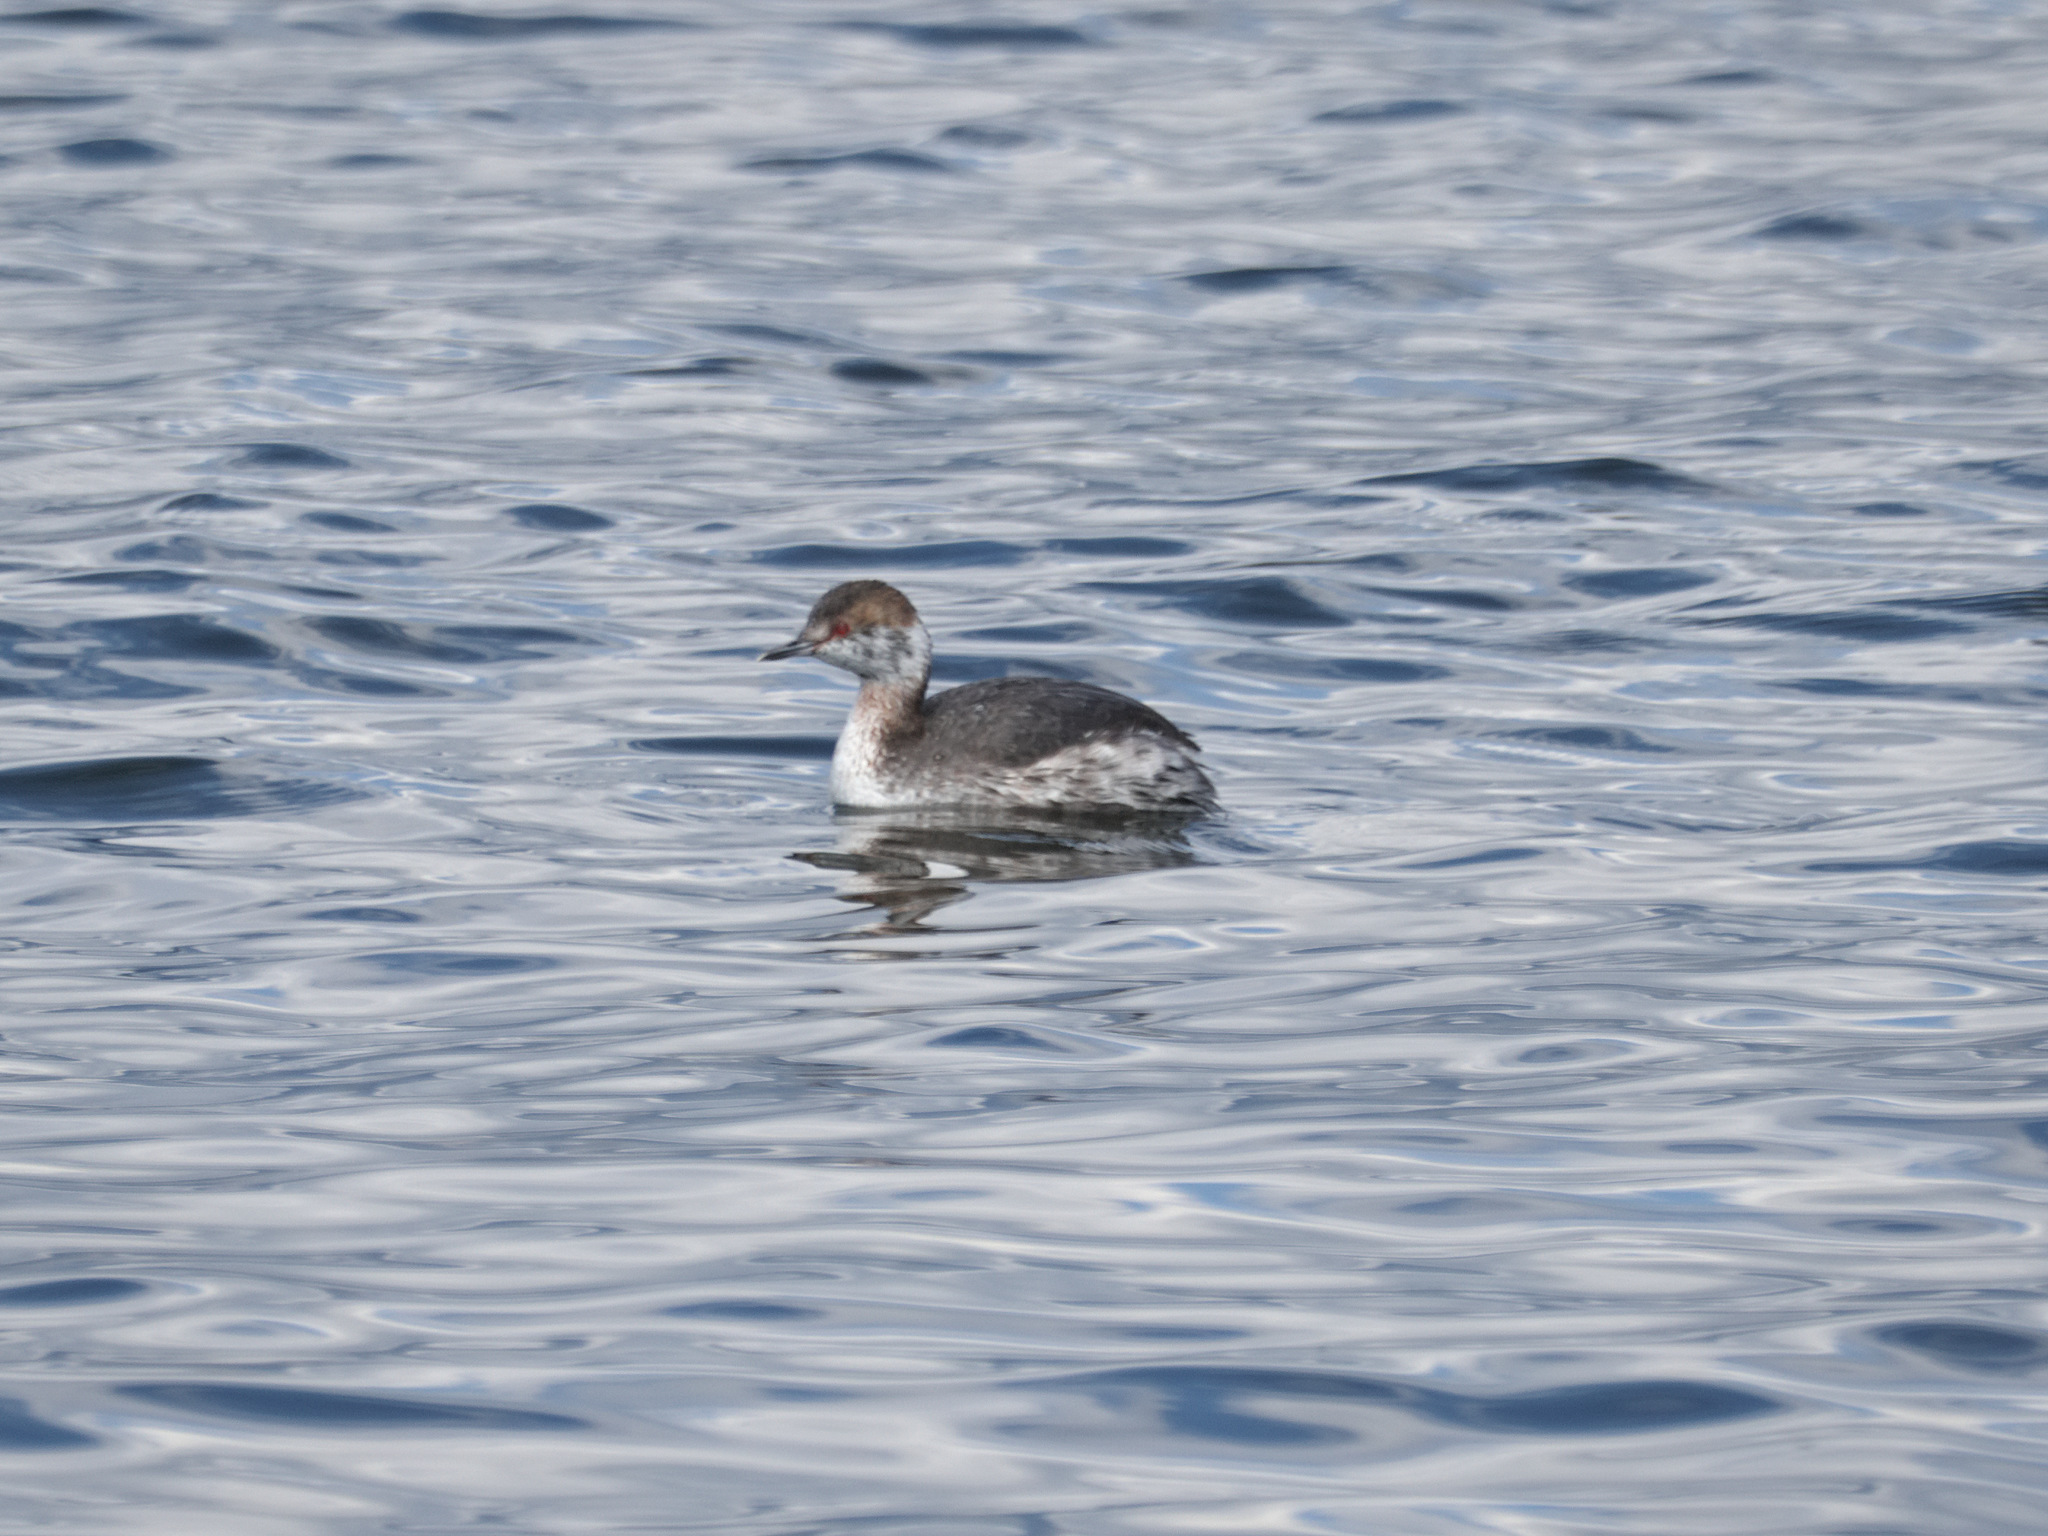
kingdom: Animalia
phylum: Chordata
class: Aves
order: Podicipediformes
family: Podicipedidae
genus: Podiceps
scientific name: Podiceps auritus
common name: Horned grebe
